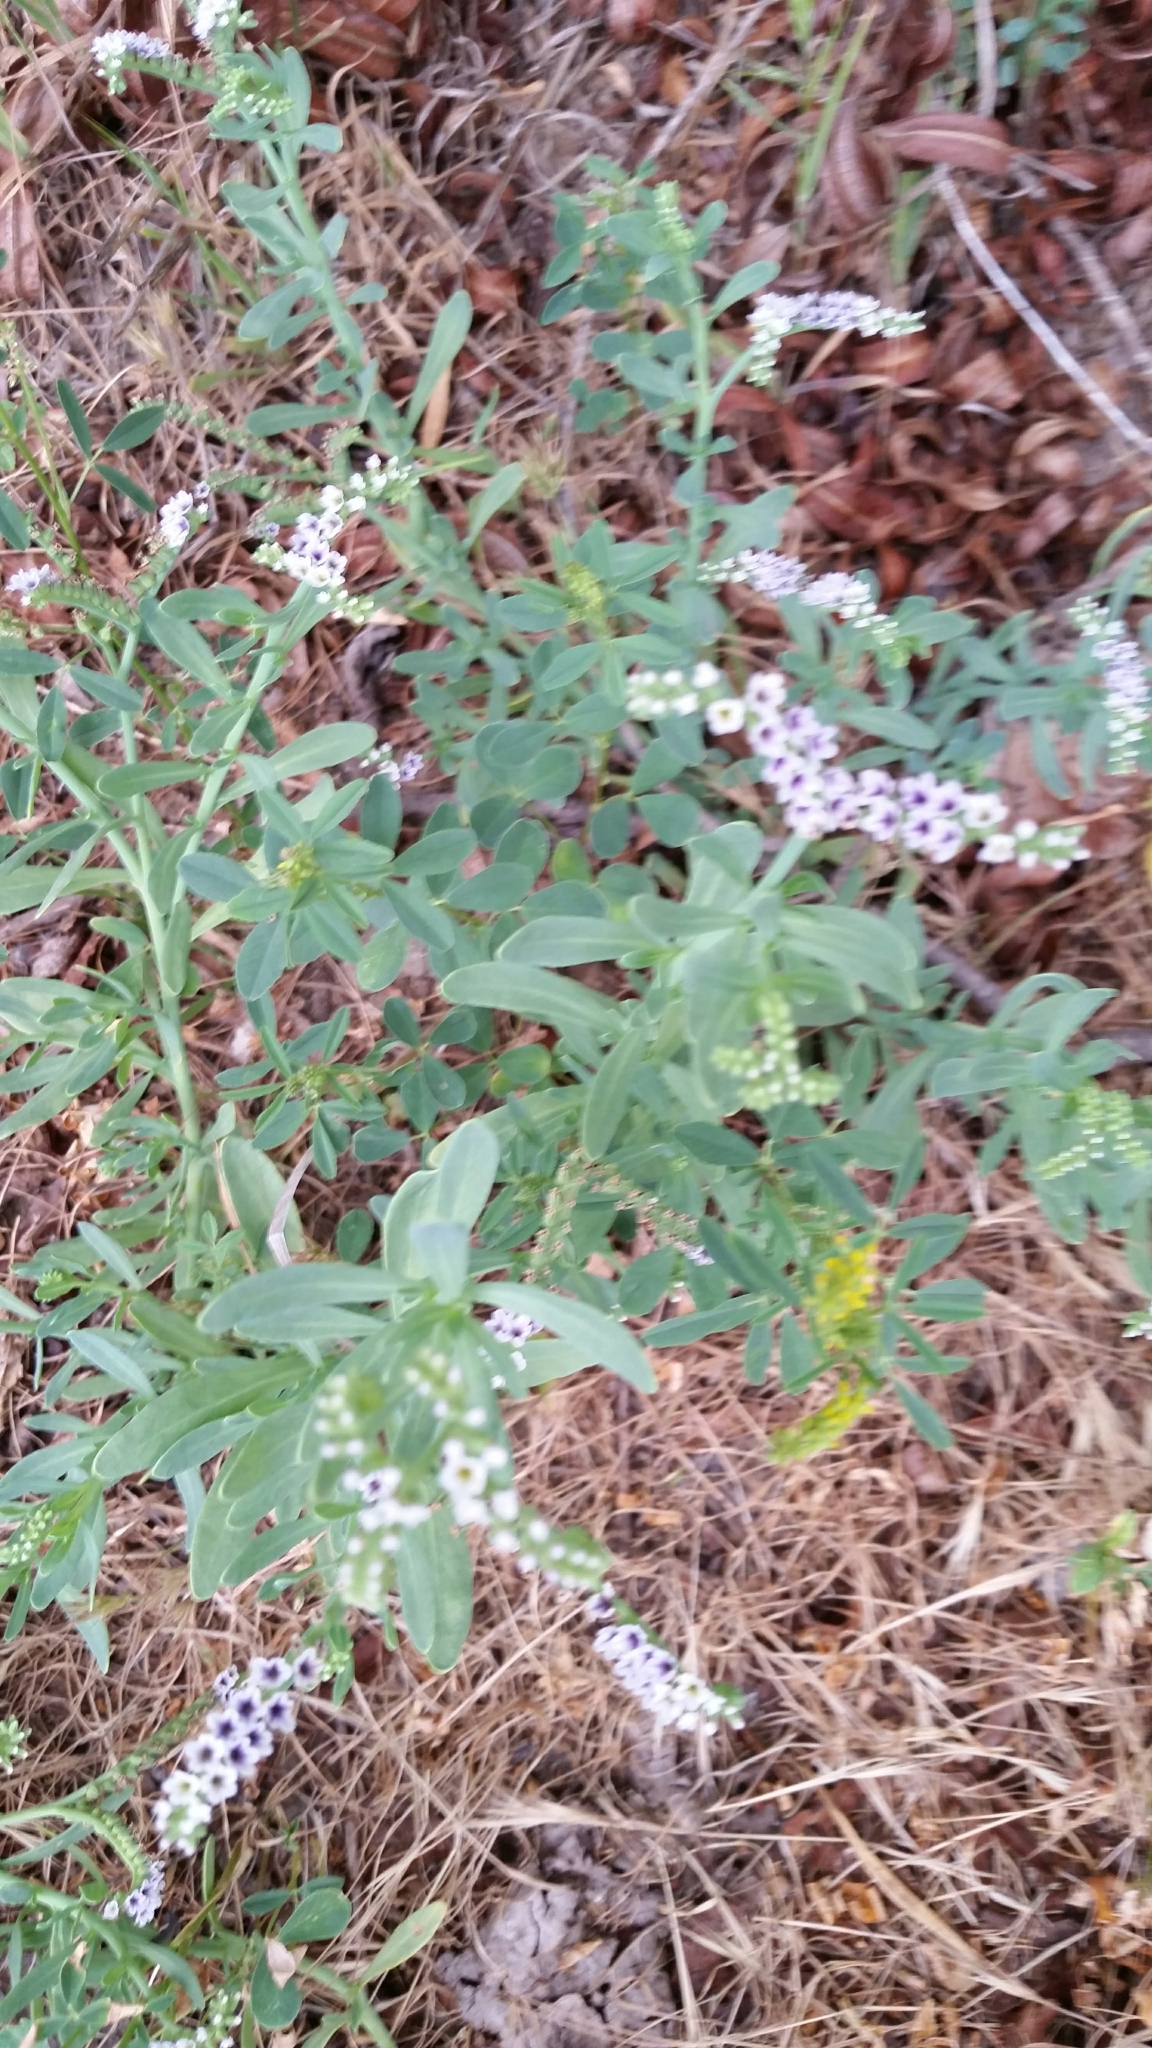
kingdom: Plantae
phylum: Tracheophyta
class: Magnoliopsida
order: Boraginales
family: Heliotropiaceae
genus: Heliotropium
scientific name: Heliotropium curassavicum
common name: Seaside heliotrope
